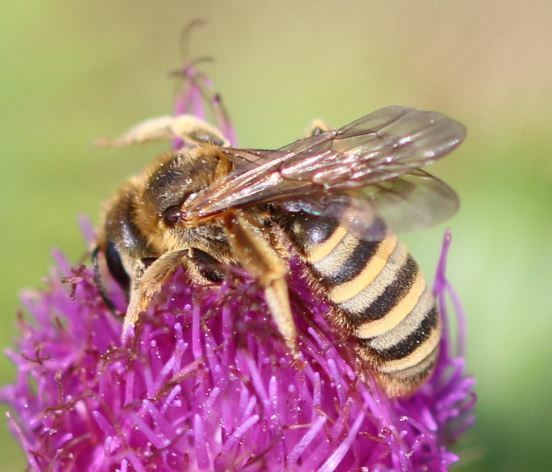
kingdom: Animalia
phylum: Arthropoda
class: Insecta
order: Hymenoptera
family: Halictidae
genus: Halictus
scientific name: Halictus scabiosae
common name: Great banded furrow bee
